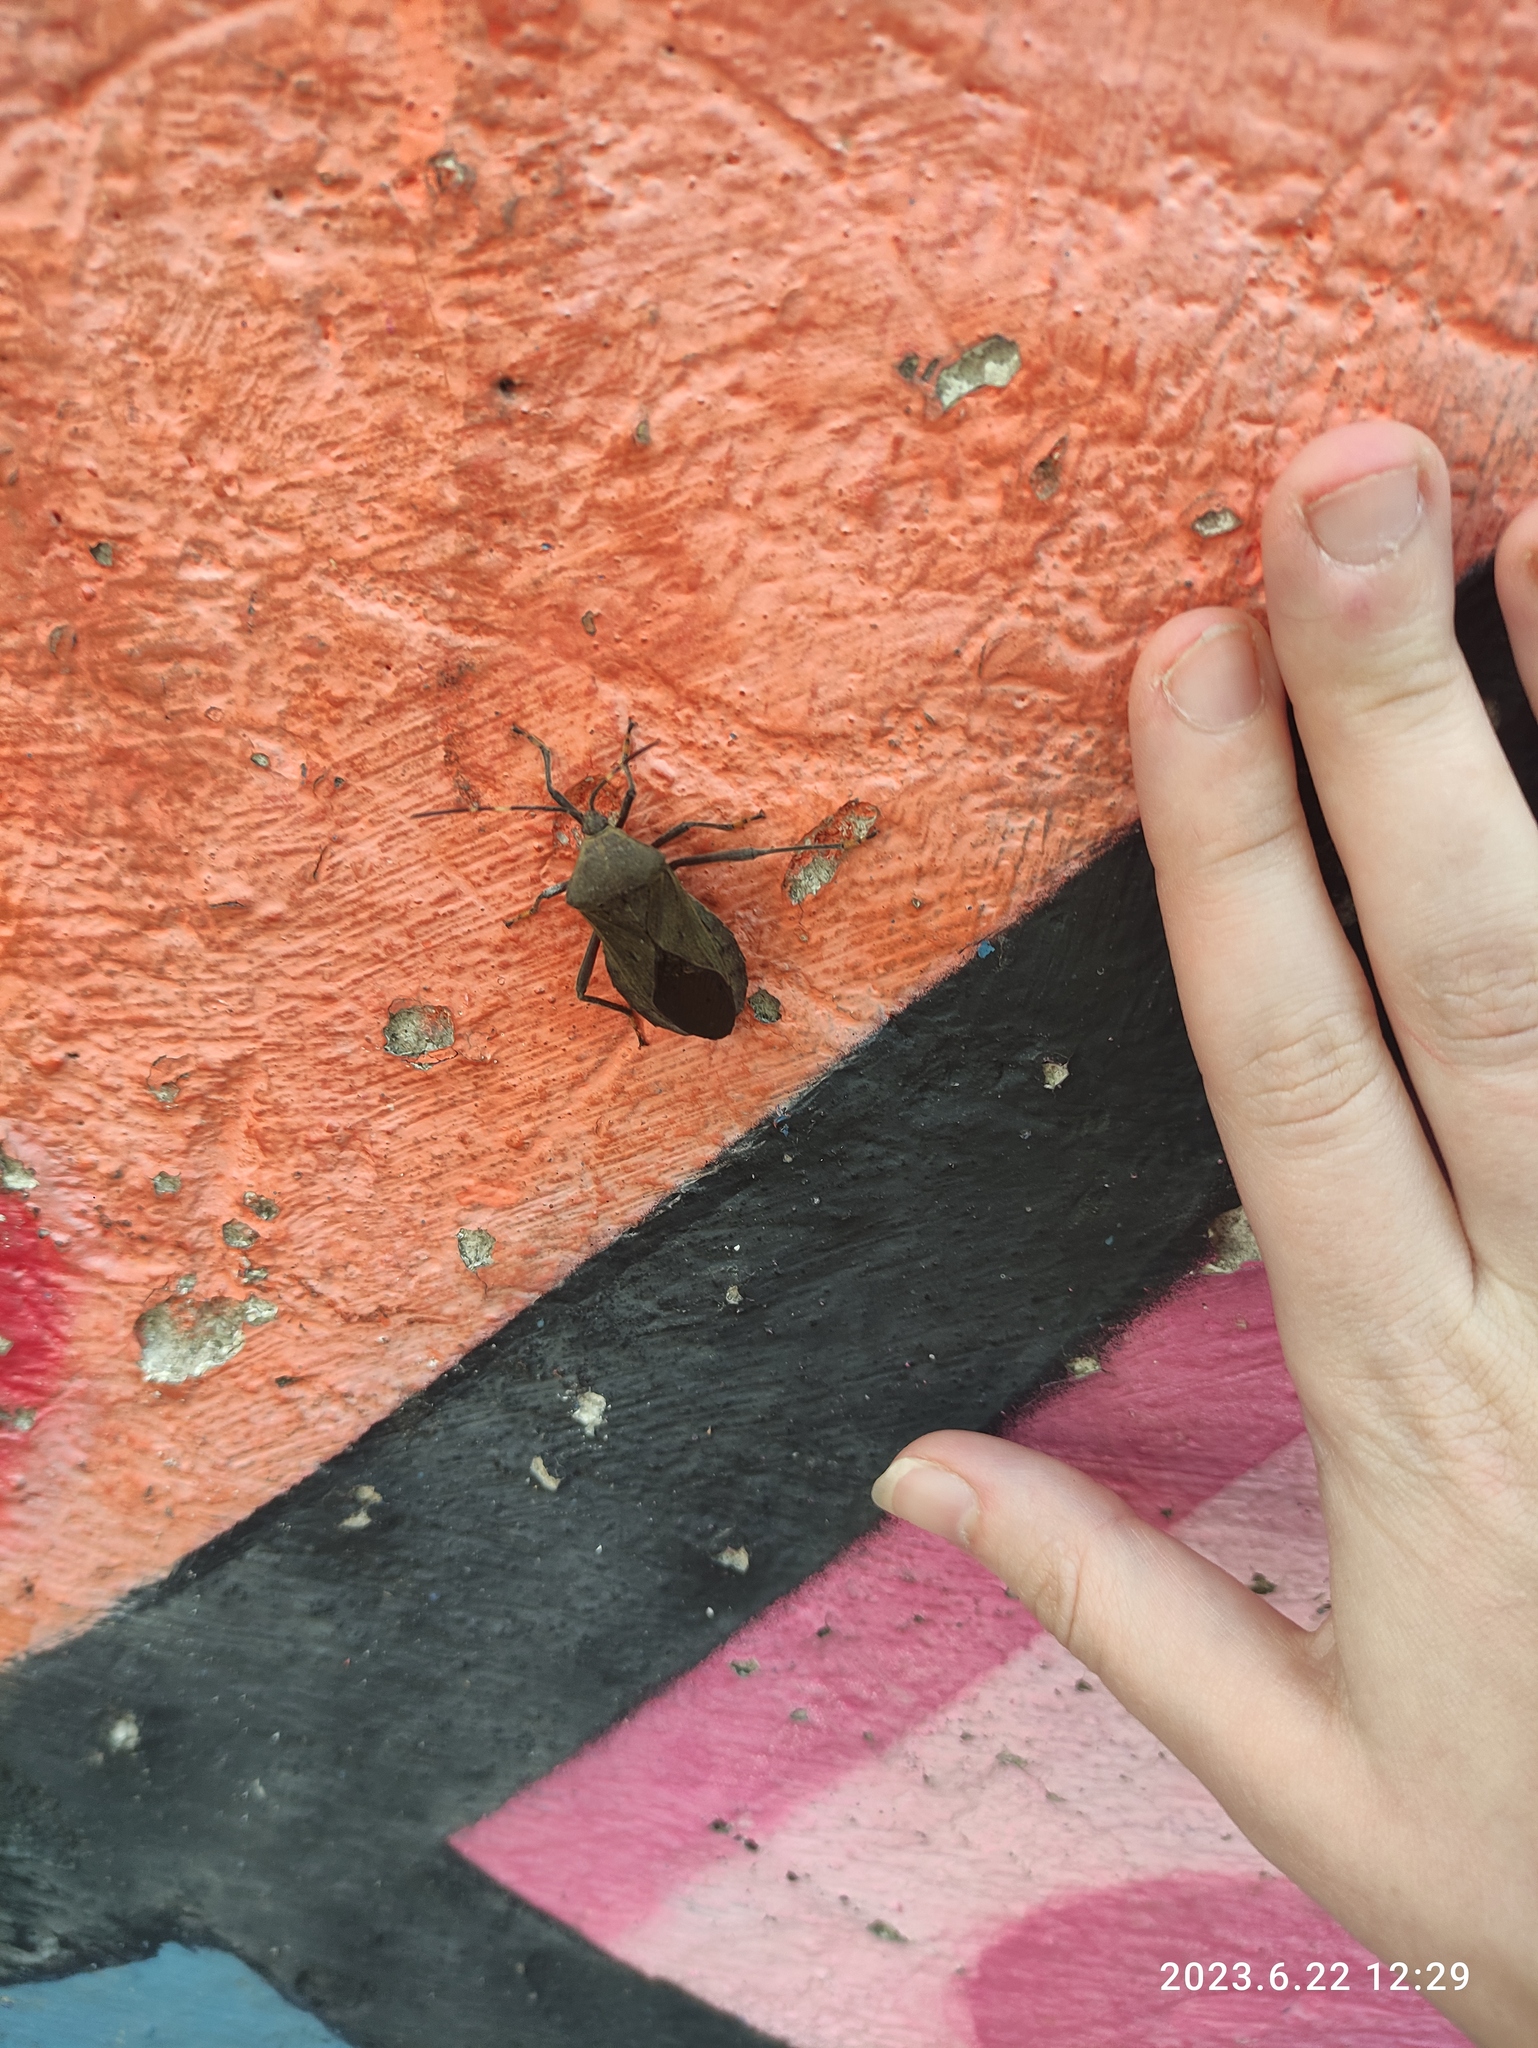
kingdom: Animalia
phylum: Arthropoda
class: Insecta
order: Hemiptera
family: Coreidae
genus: Pachylis
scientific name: Pachylis laticornis
